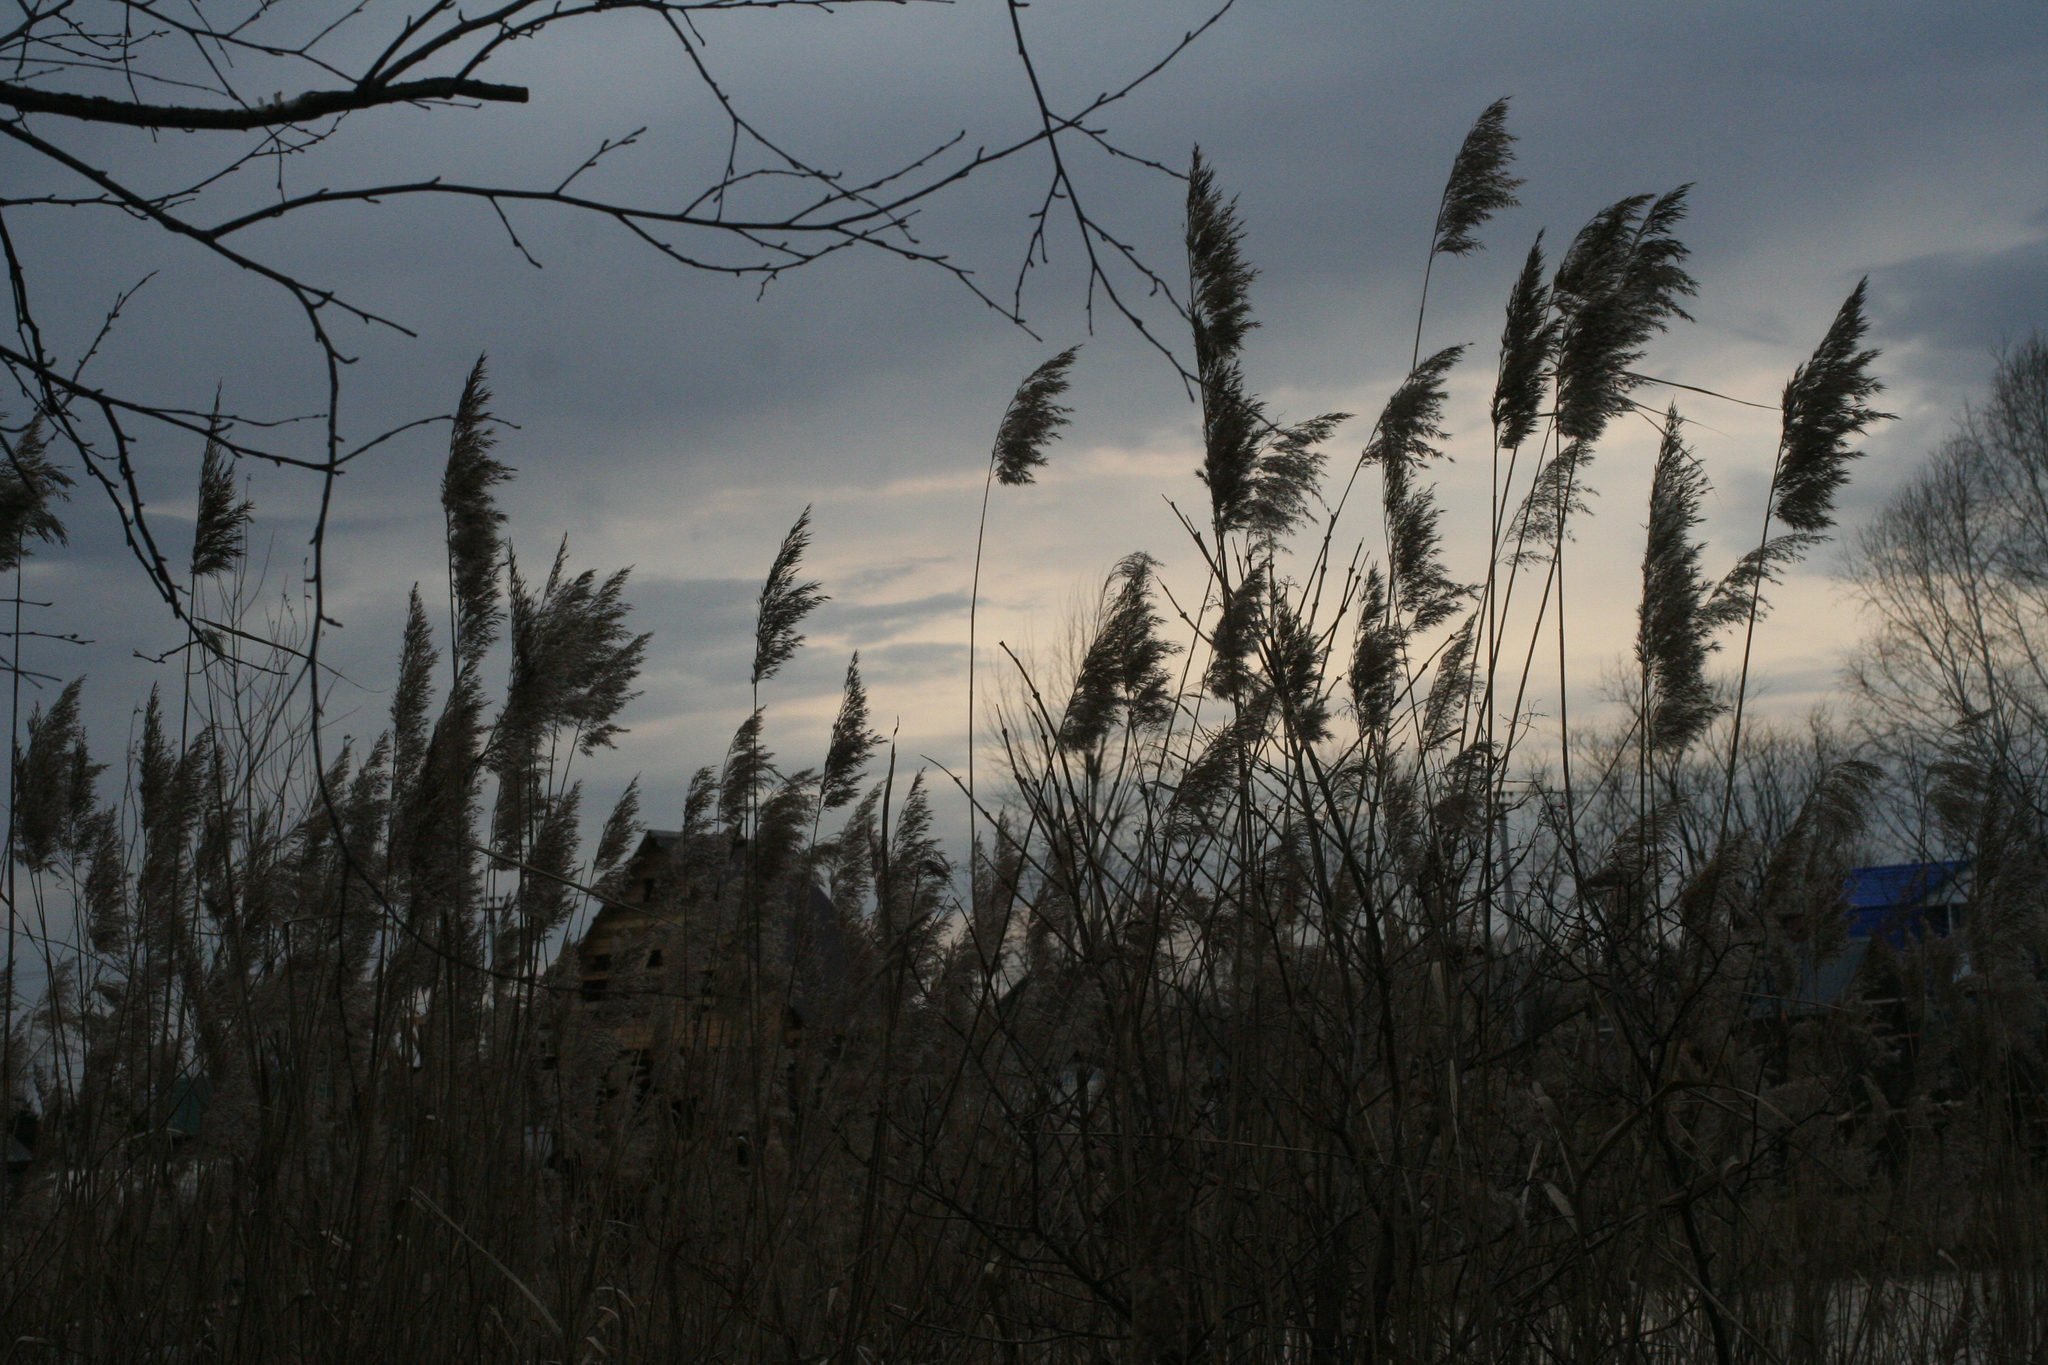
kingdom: Plantae
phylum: Tracheophyta
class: Liliopsida
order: Poales
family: Poaceae
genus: Phragmites
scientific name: Phragmites australis
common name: Common reed
